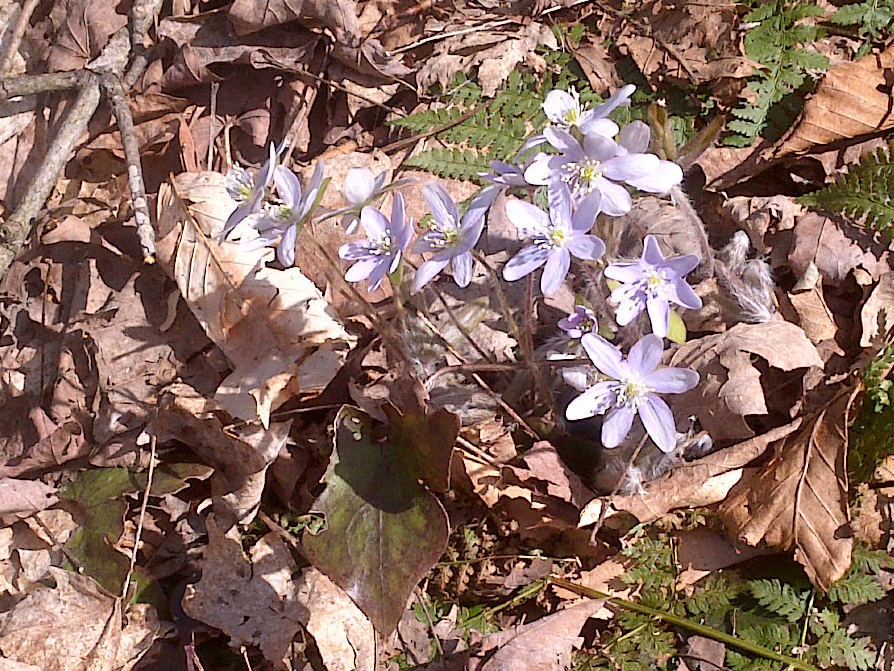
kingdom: Plantae
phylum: Tracheophyta
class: Magnoliopsida
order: Ranunculales
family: Ranunculaceae
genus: Hepatica
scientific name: Hepatica acutiloba
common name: Sharp-lobed hepatica
